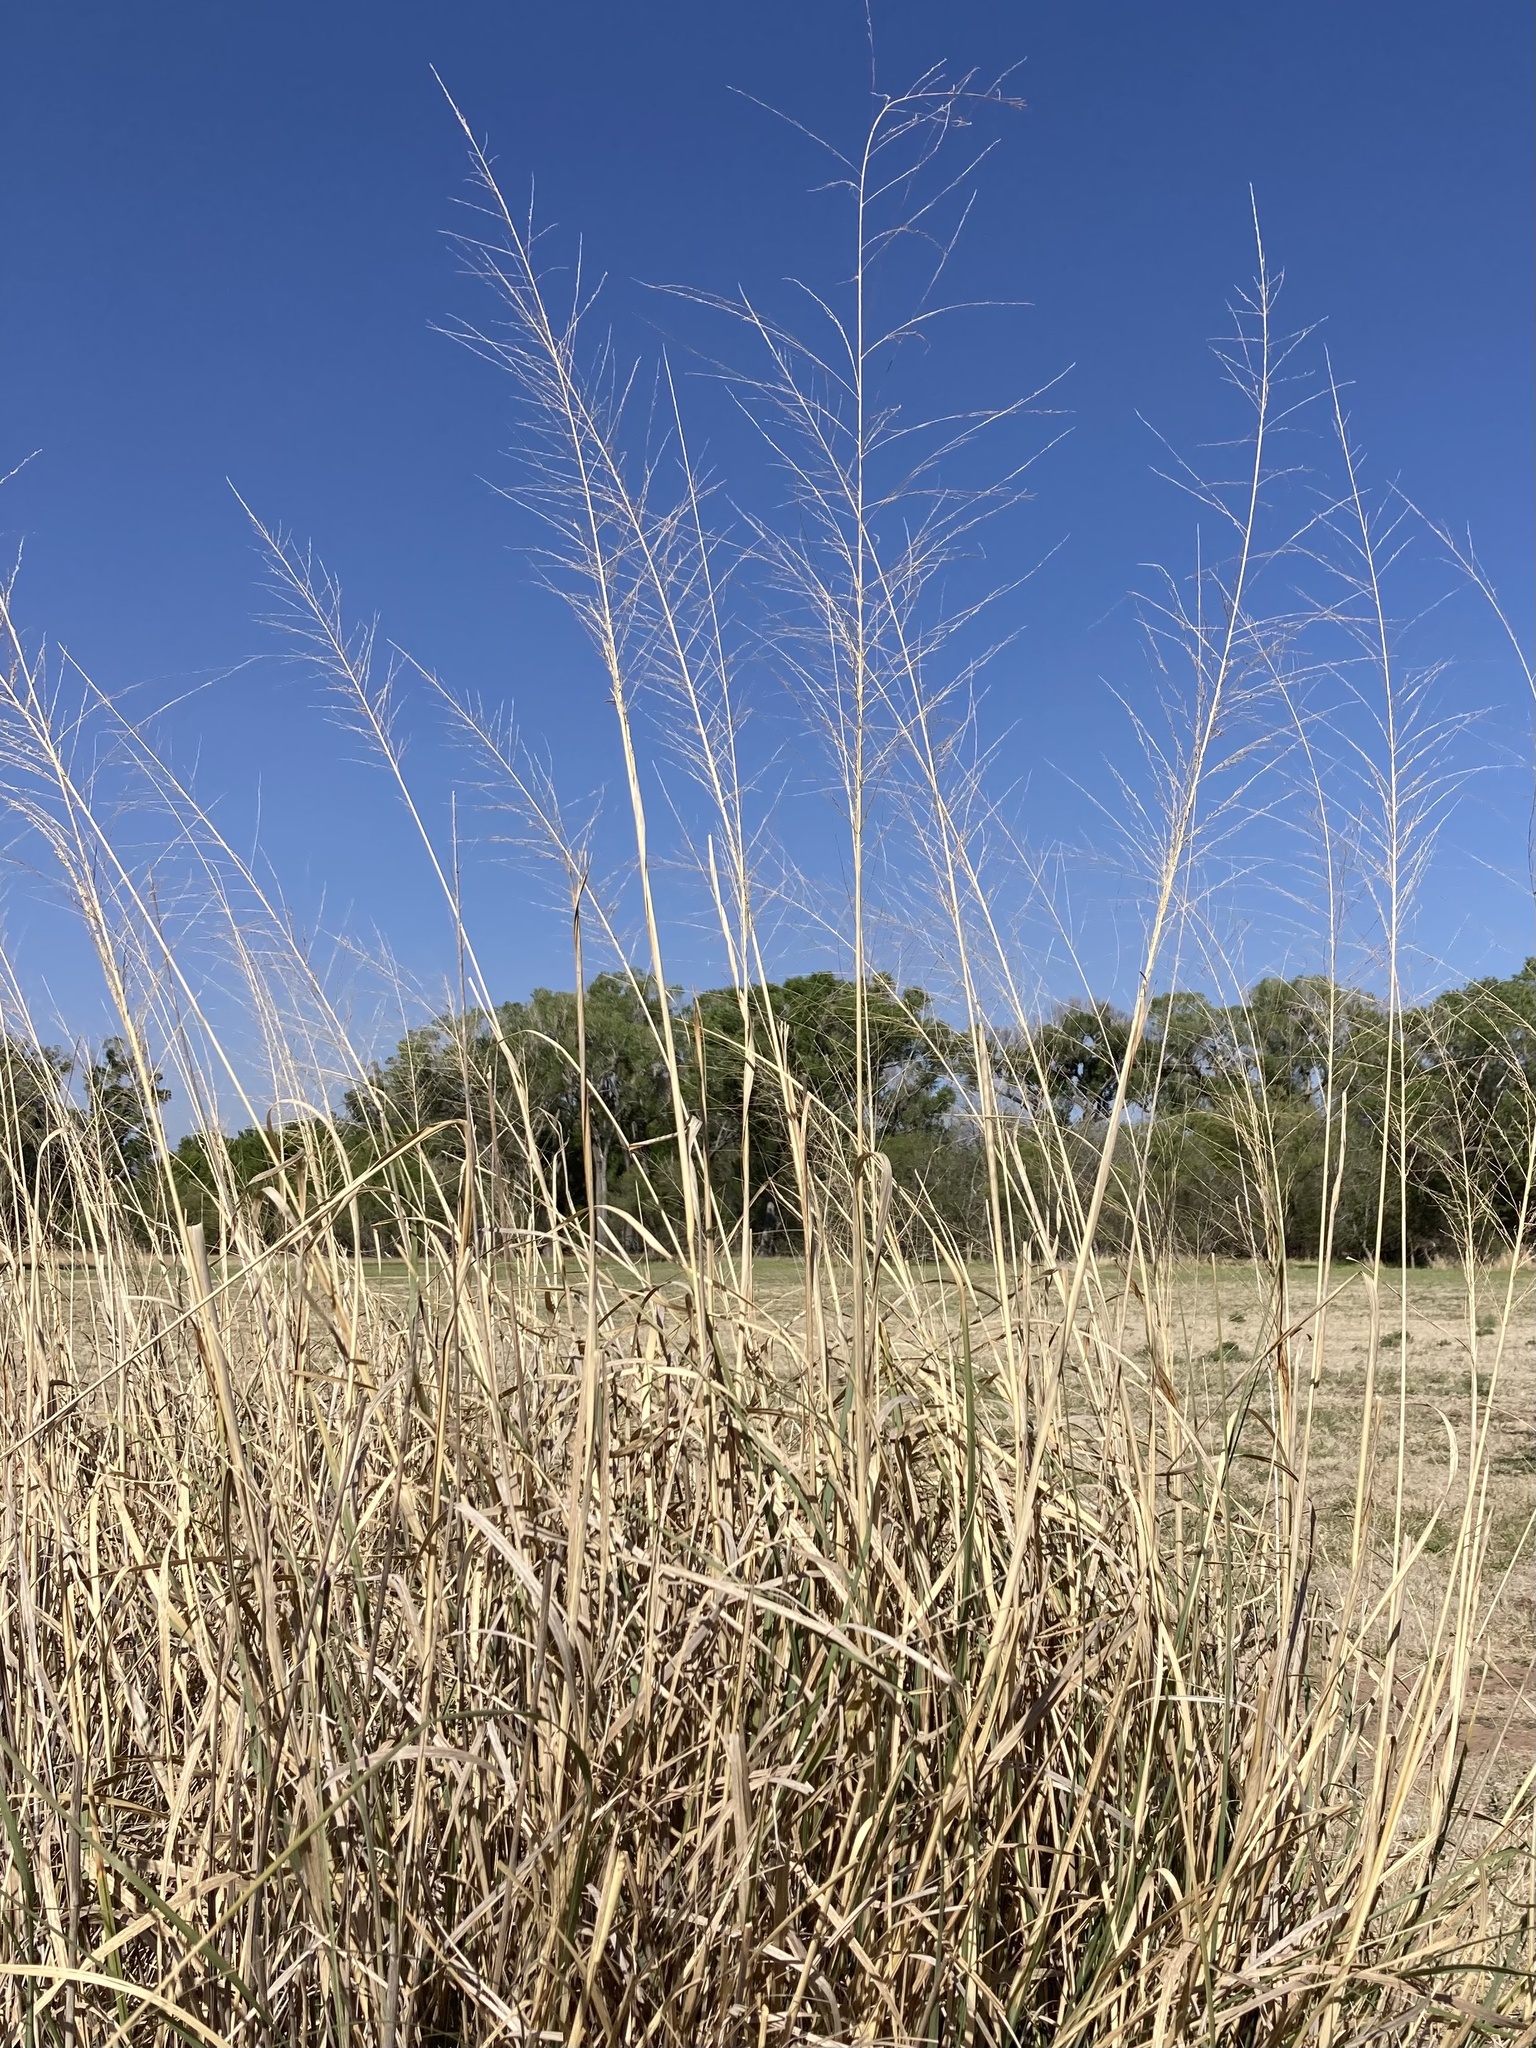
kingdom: Plantae
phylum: Tracheophyta
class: Liliopsida
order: Poales
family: Poaceae
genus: Sporobolus
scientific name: Sporobolus wrightii
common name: Big alkali sacaton
